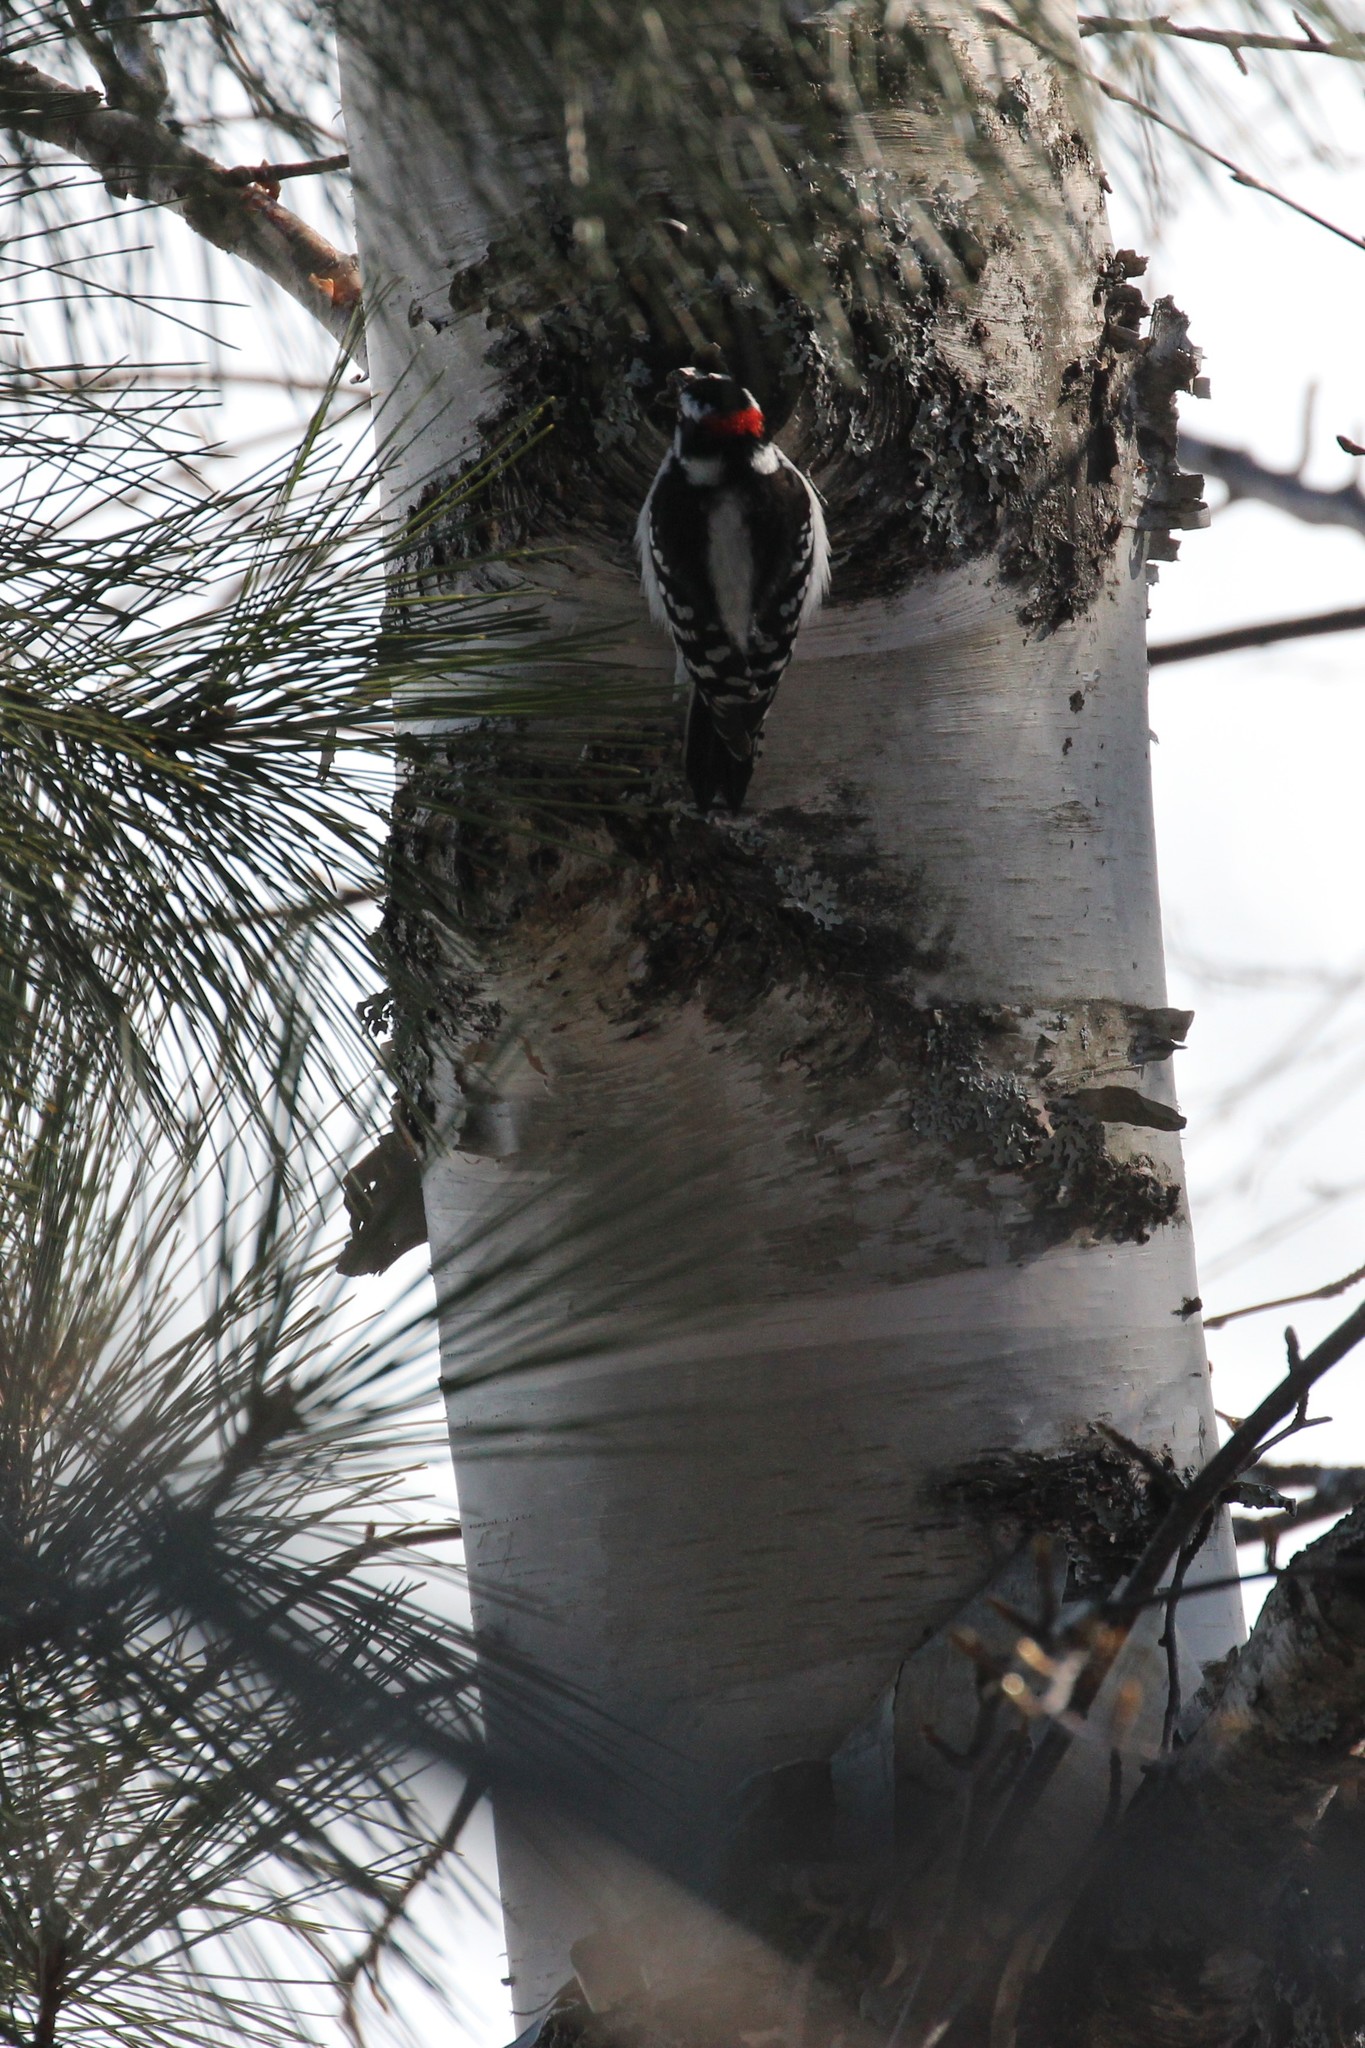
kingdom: Animalia
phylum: Chordata
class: Aves
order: Piciformes
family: Picidae
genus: Dryobates
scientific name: Dryobates pubescens
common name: Downy woodpecker
